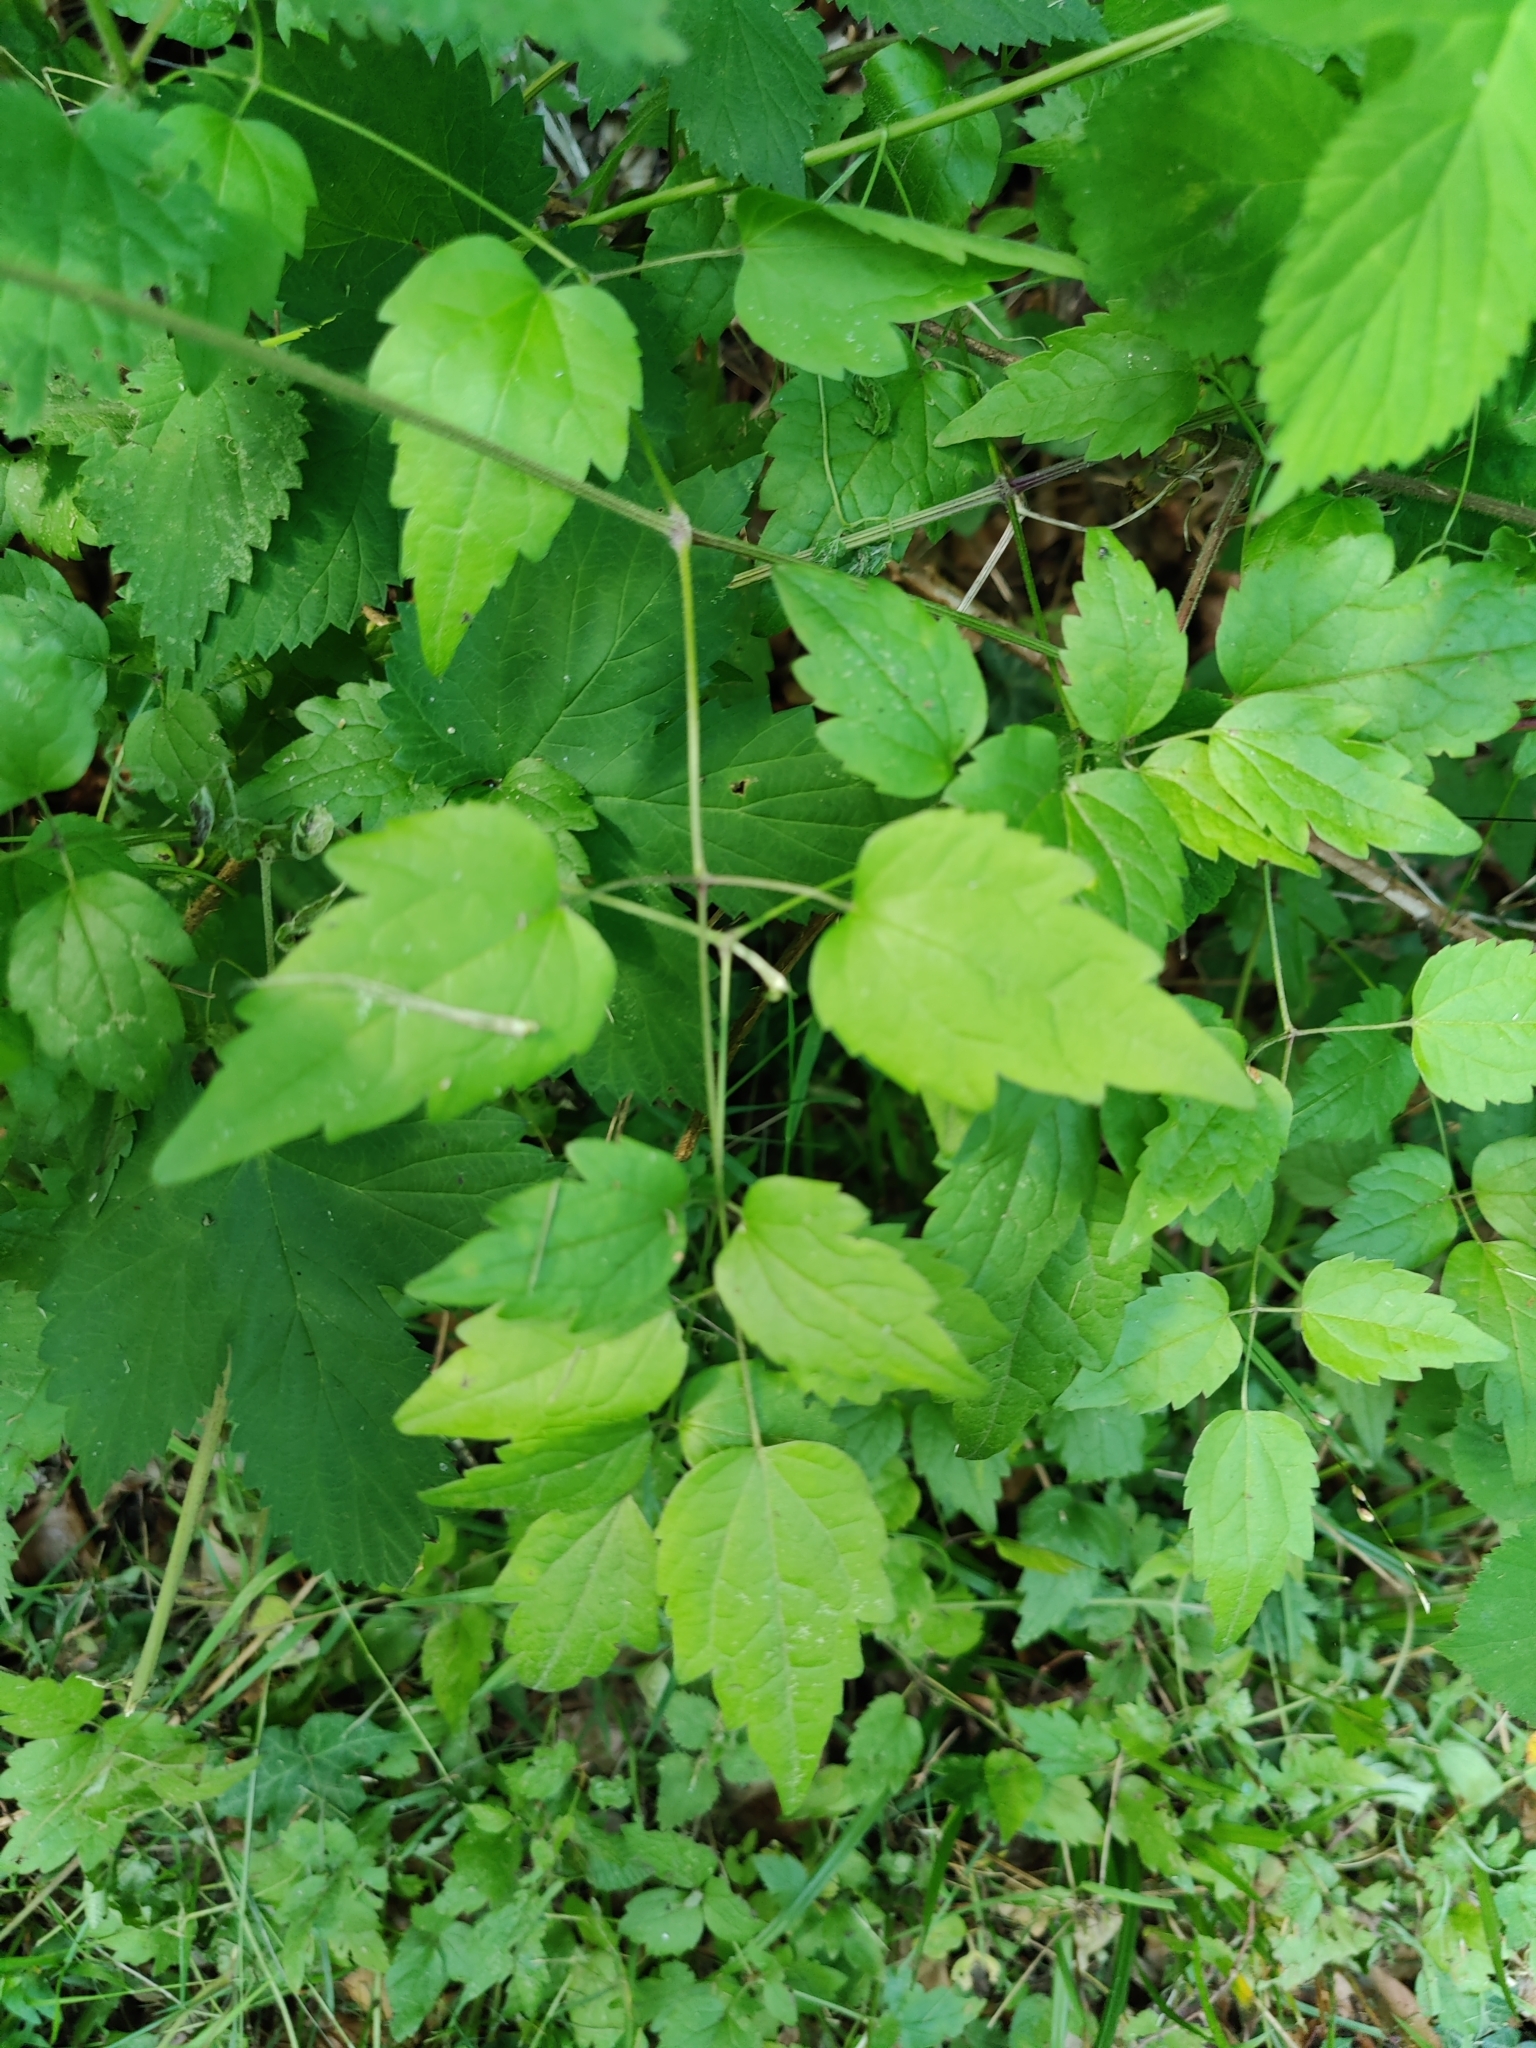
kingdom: Plantae
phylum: Tracheophyta
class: Magnoliopsida
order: Ranunculales
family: Ranunculaceae
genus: Clematis
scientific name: Clematis vitalba
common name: Evergreen clematis
